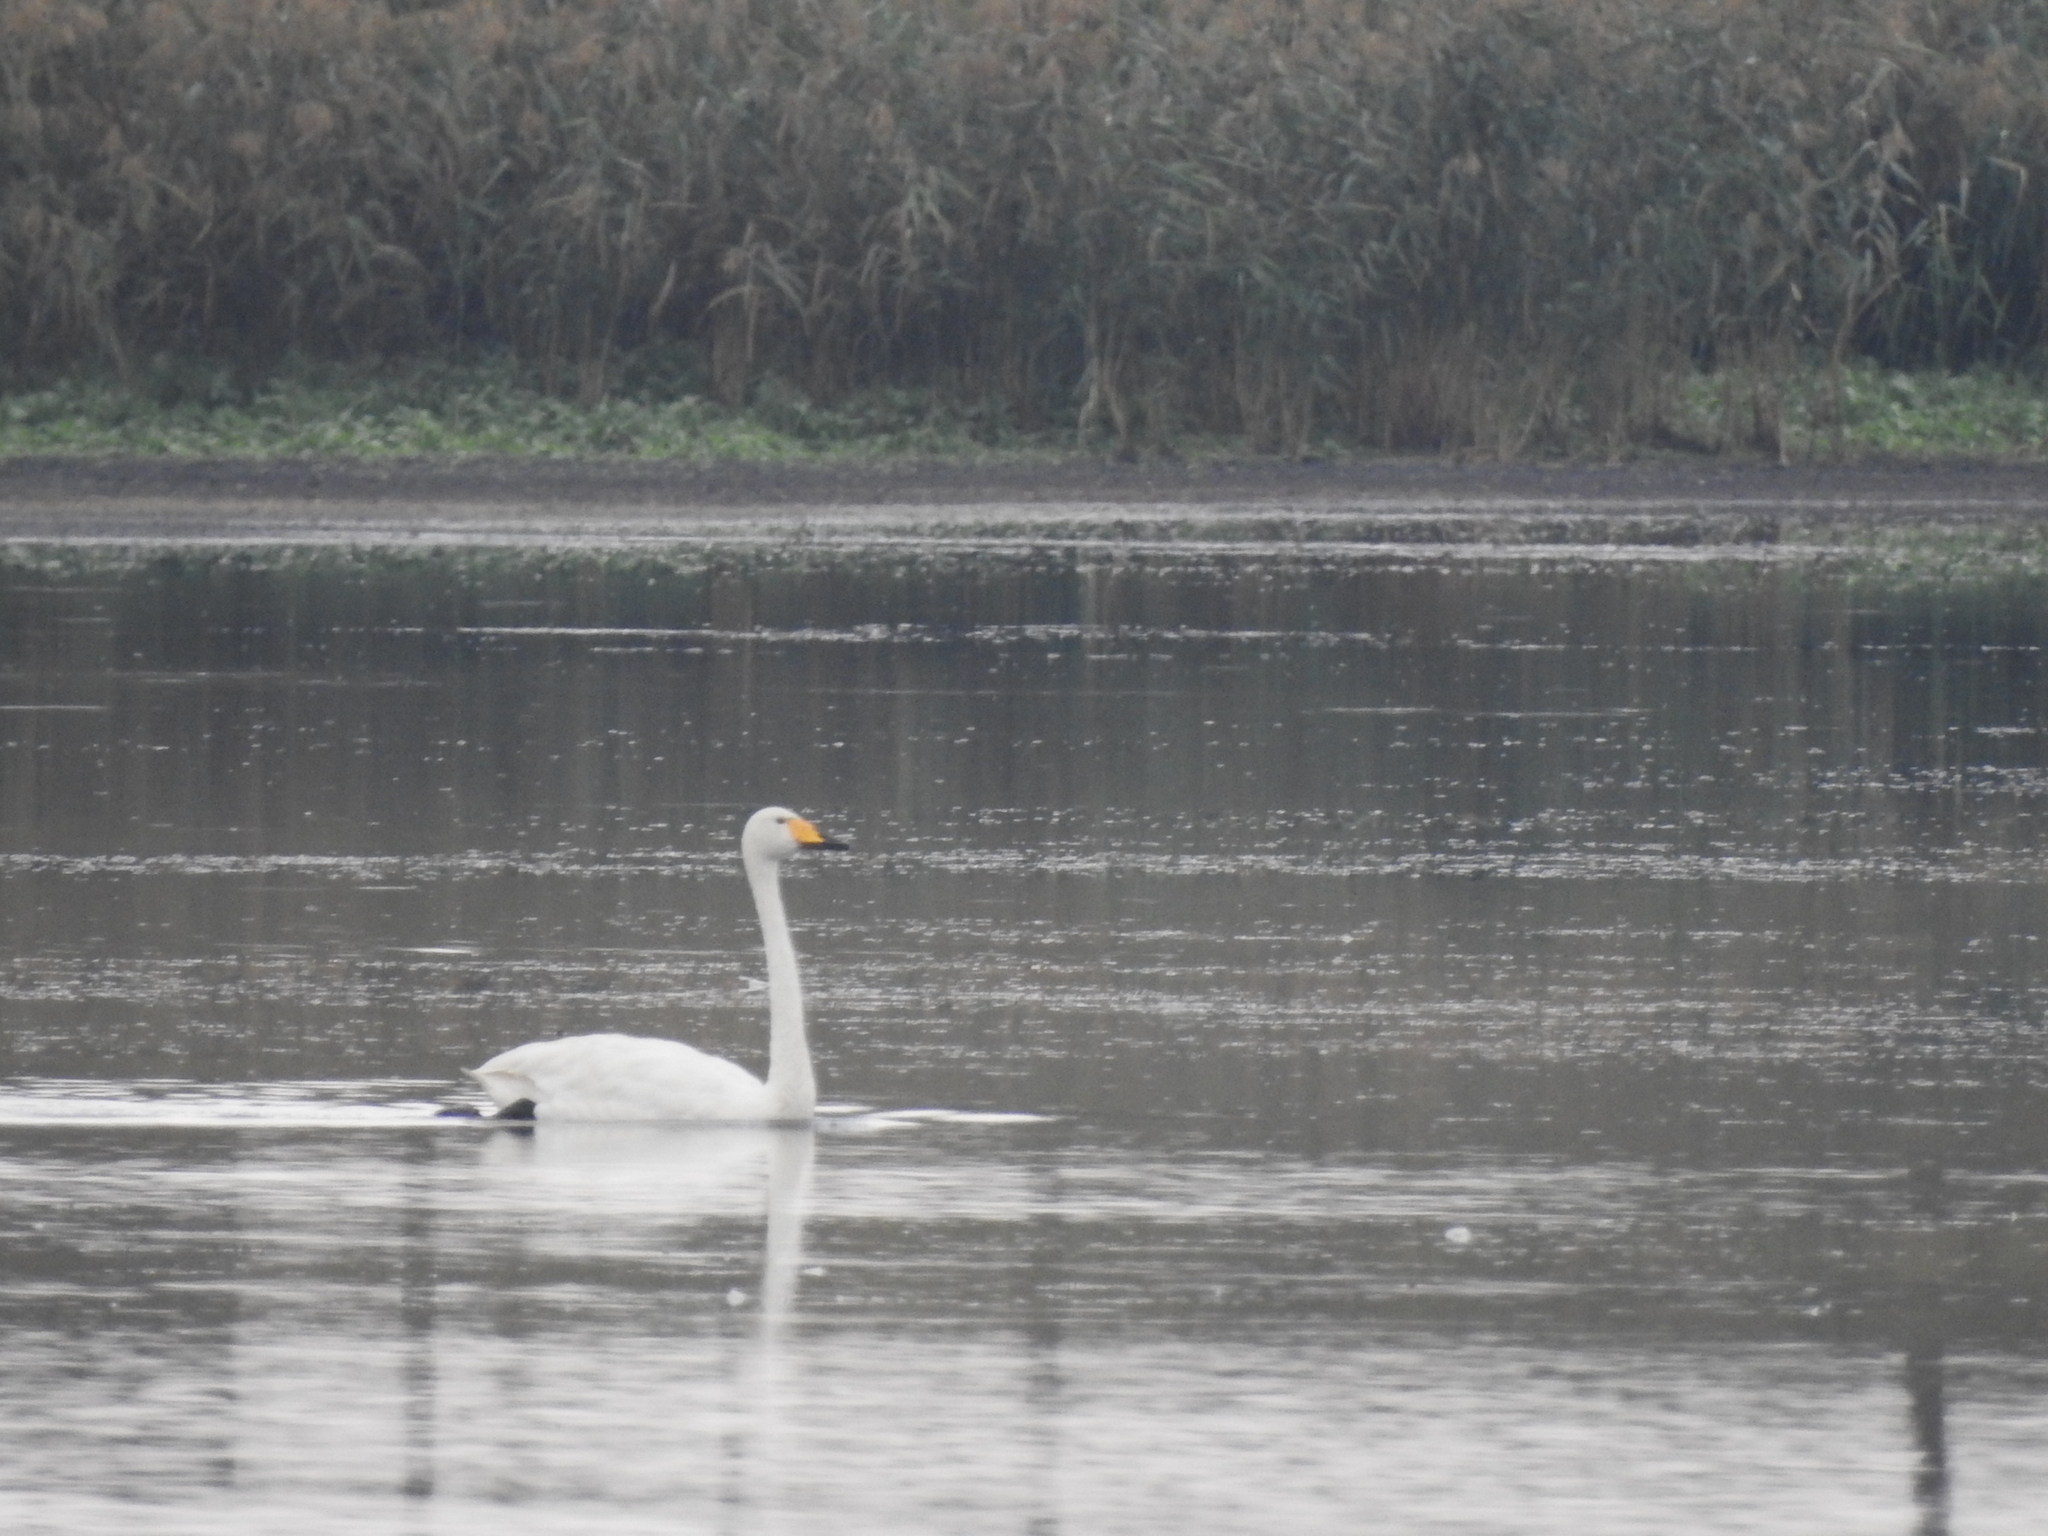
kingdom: Animalia
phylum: Chordata
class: Aves
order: Anseriformes
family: Anatidae
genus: Cygnus
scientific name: Cygnus cygnus
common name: Whooper swan
